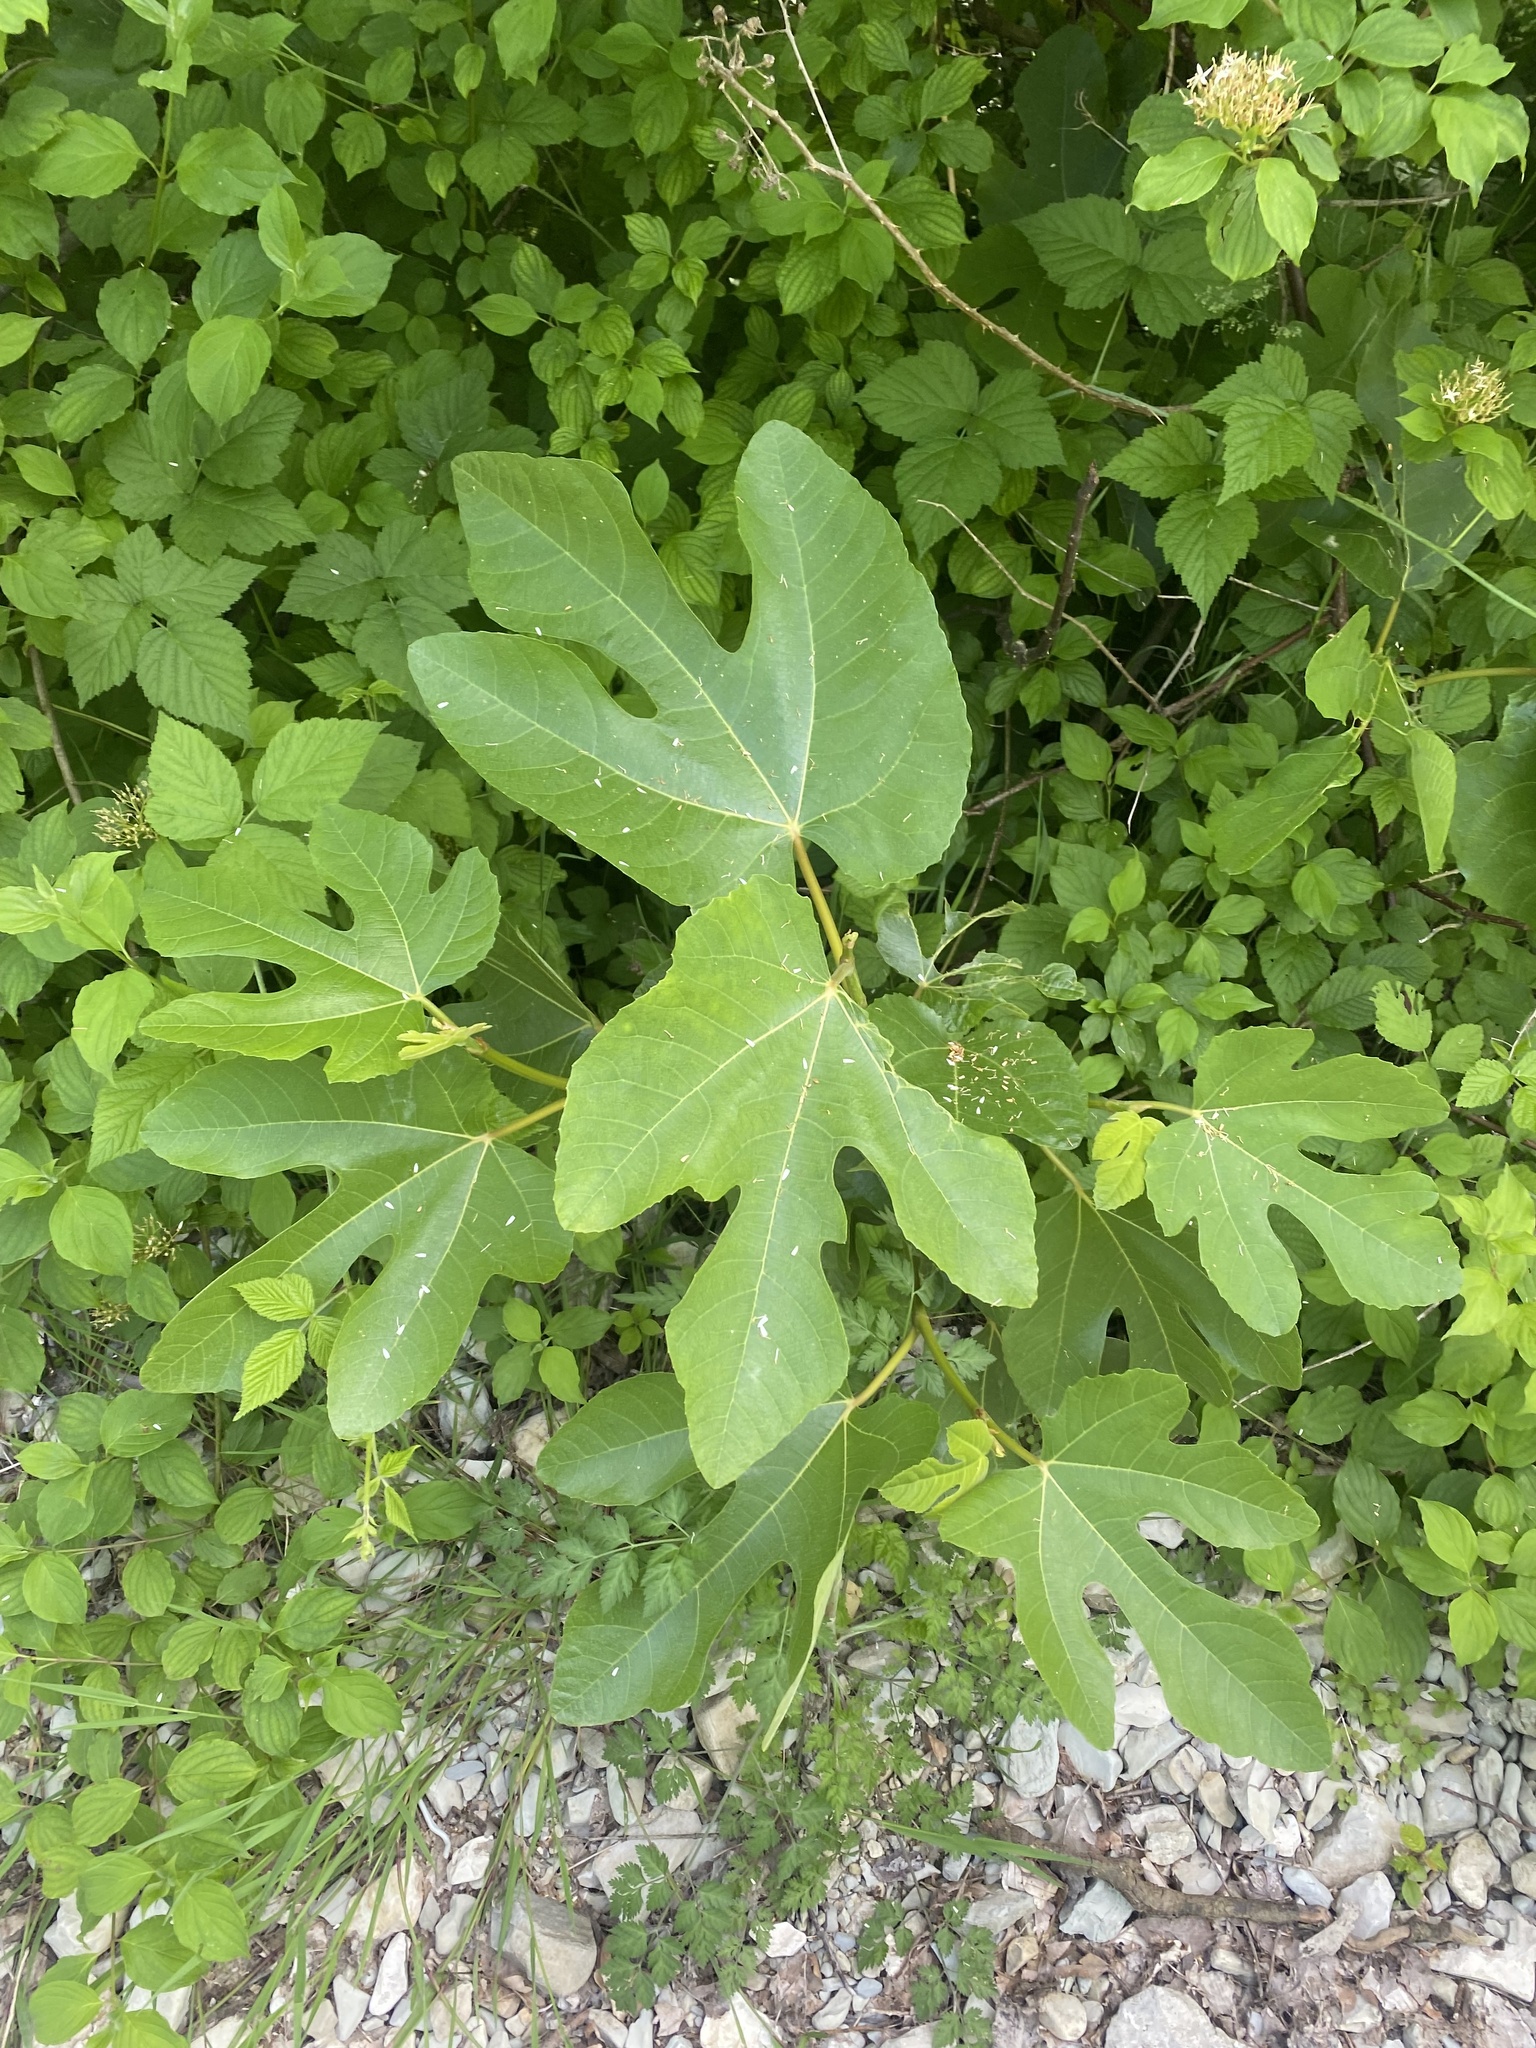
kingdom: Plantae
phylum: Tracheophyta
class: Magnoliopsida
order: Rosales
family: Moraceae
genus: Ficus
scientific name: Ficus carica
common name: Fig
